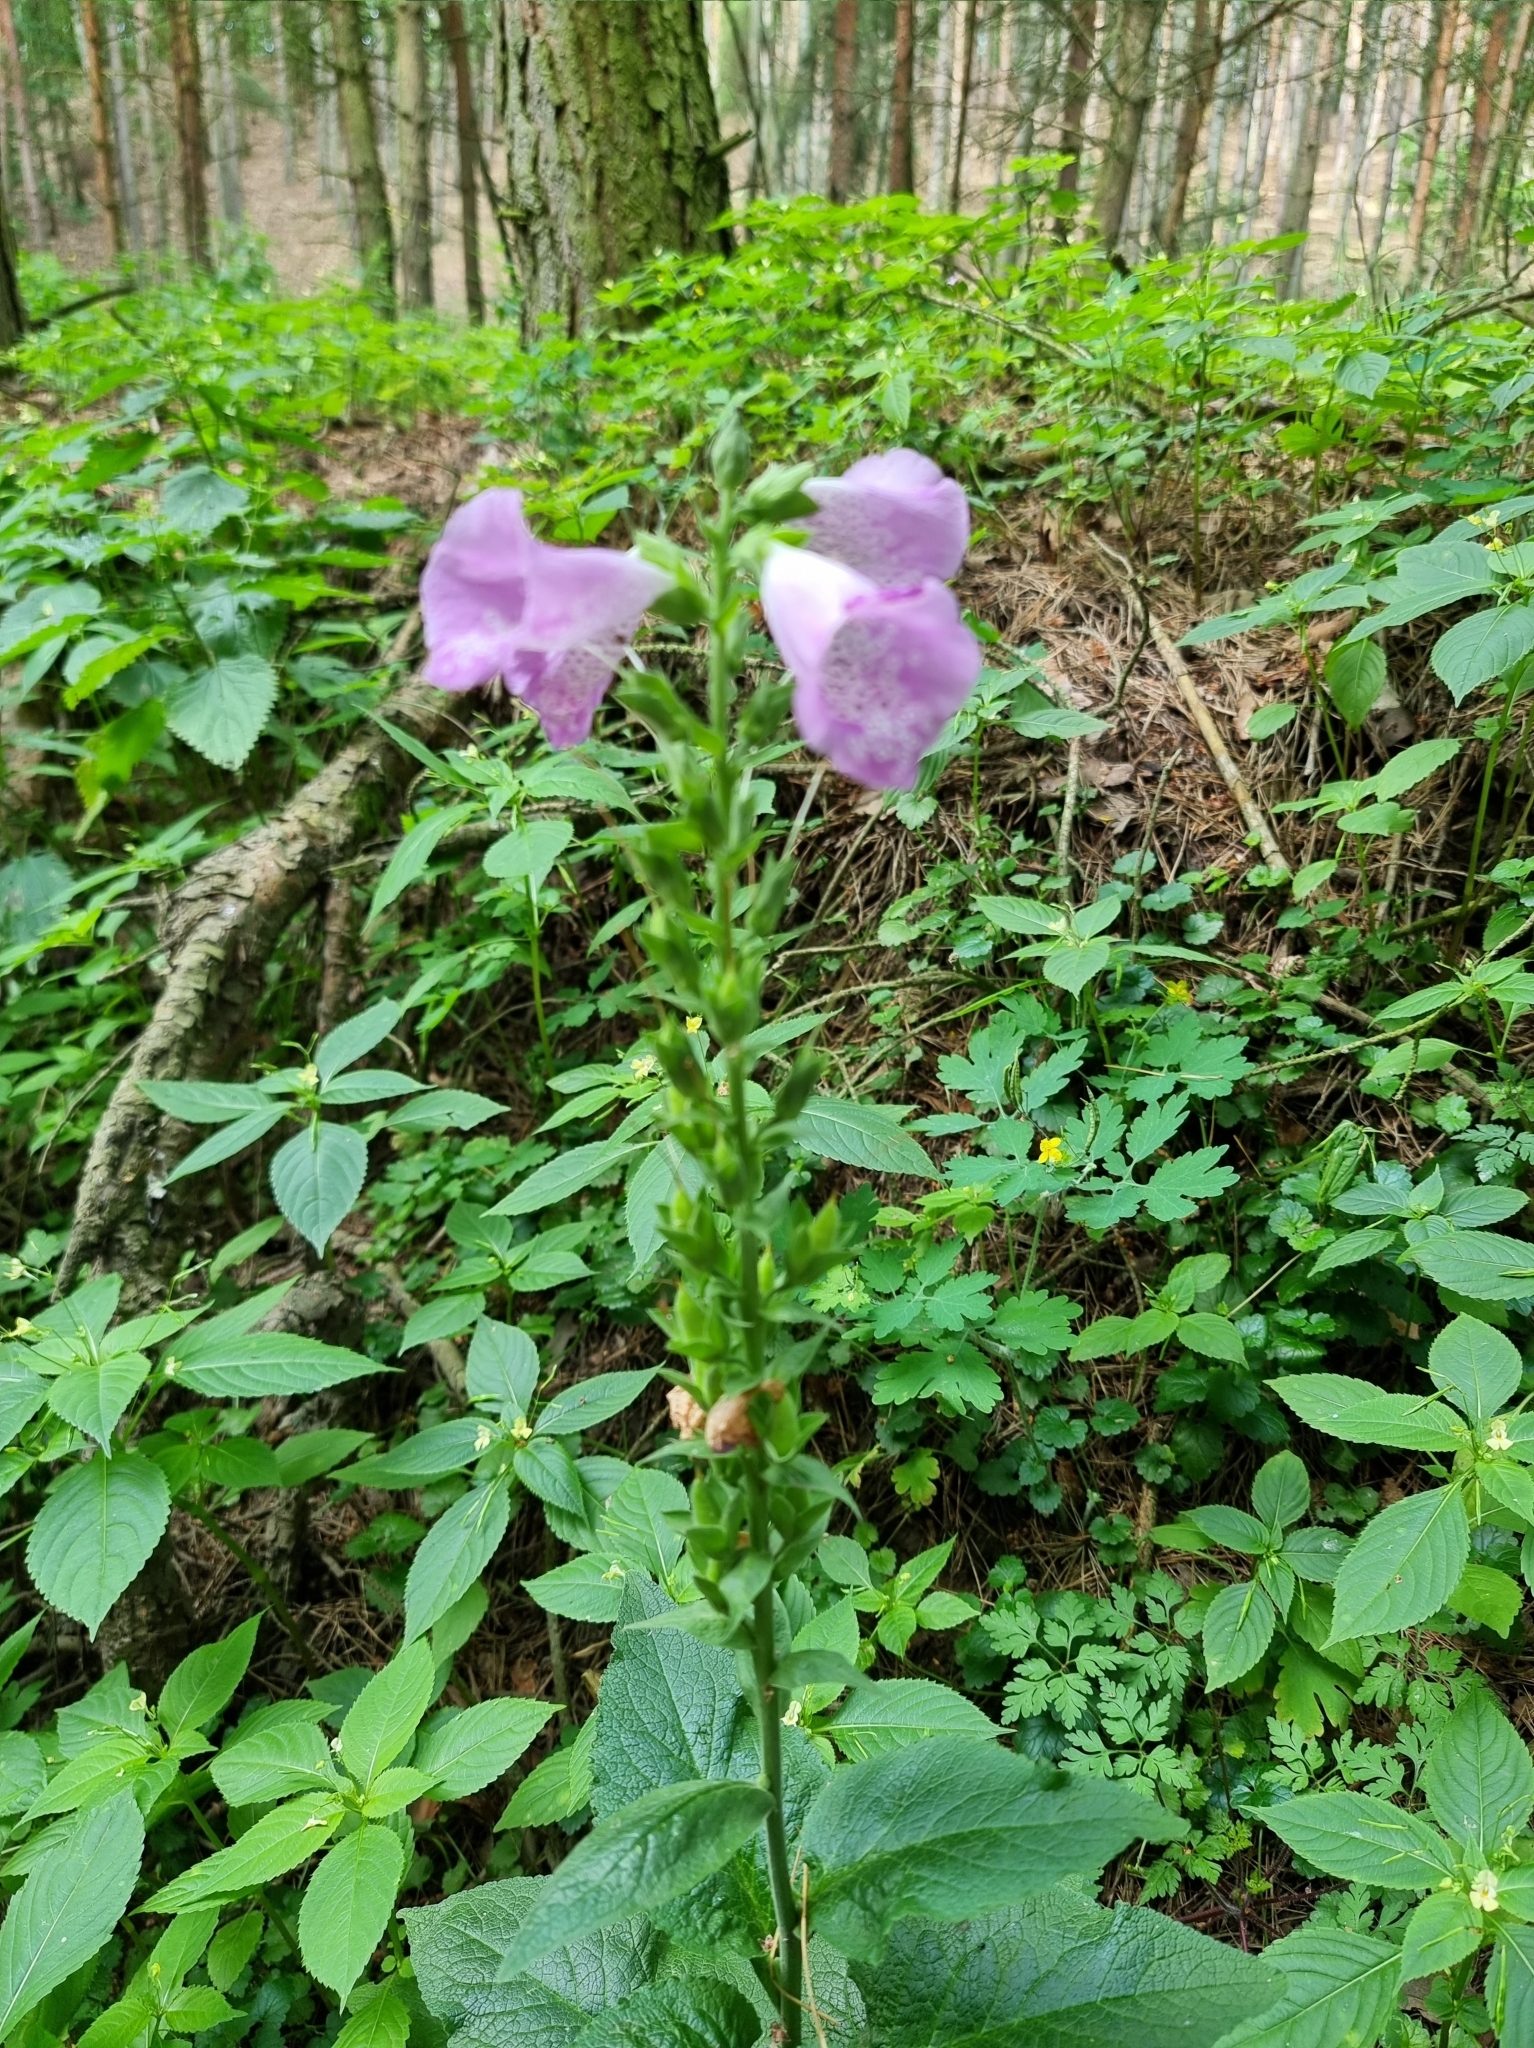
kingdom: Plantae
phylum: Tracheophyta
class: Magnoliopsida
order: Lamiales
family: Plantaginaceae
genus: Digitalis
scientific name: Digitalis purpurea
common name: Foxglove
